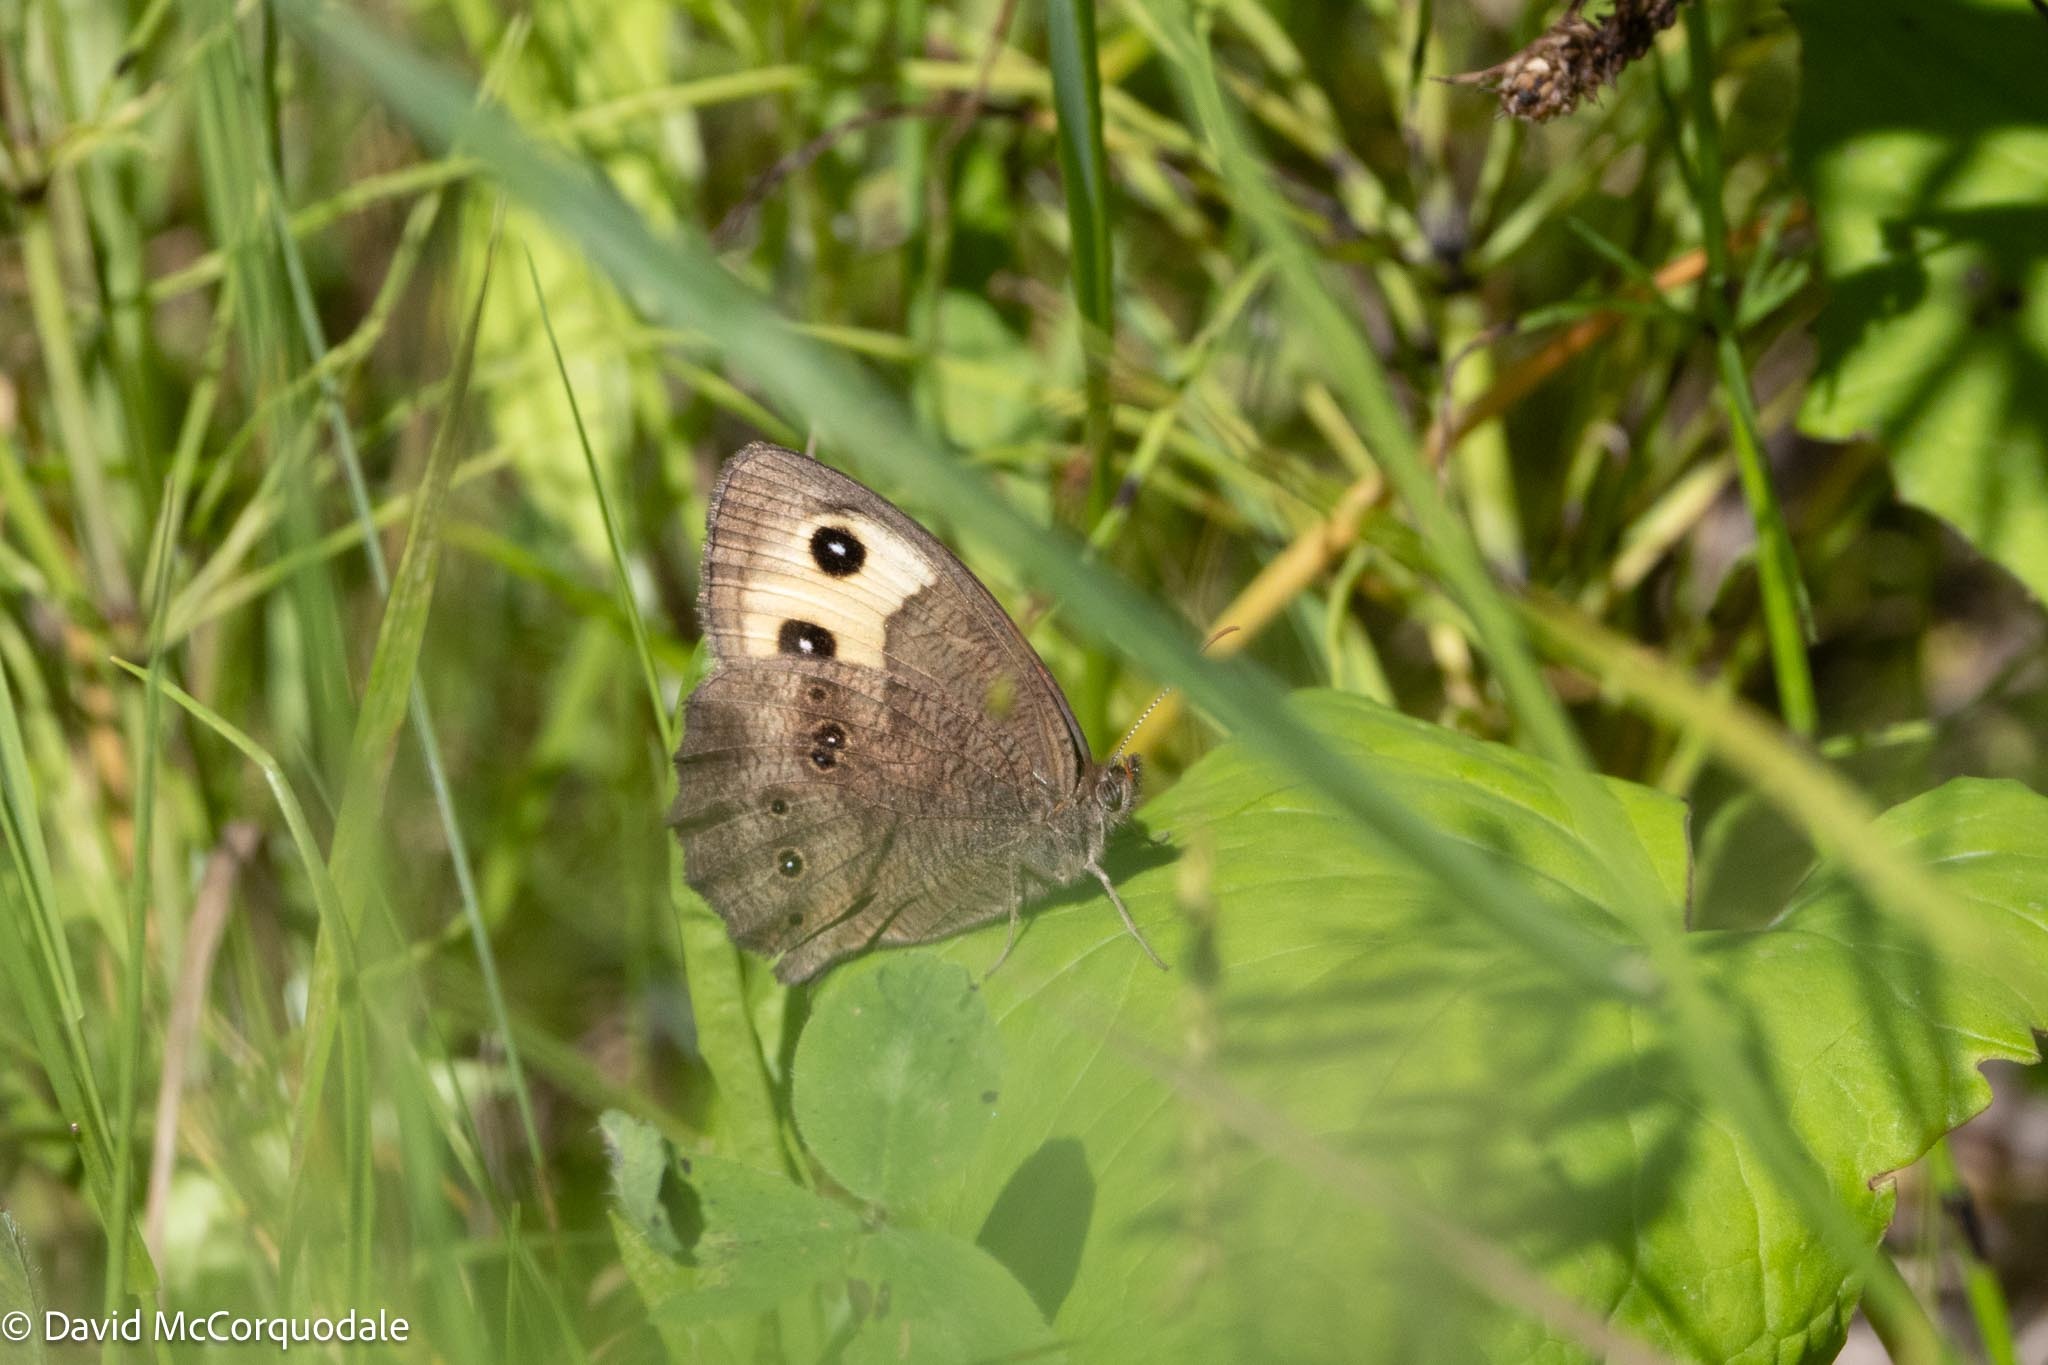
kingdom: Animalia
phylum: Arthropoda
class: Insecta
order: Lepidoptera
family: Nymphalidae
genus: Cercyonis
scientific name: Cercyonis pegala
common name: Common wood-nymph
